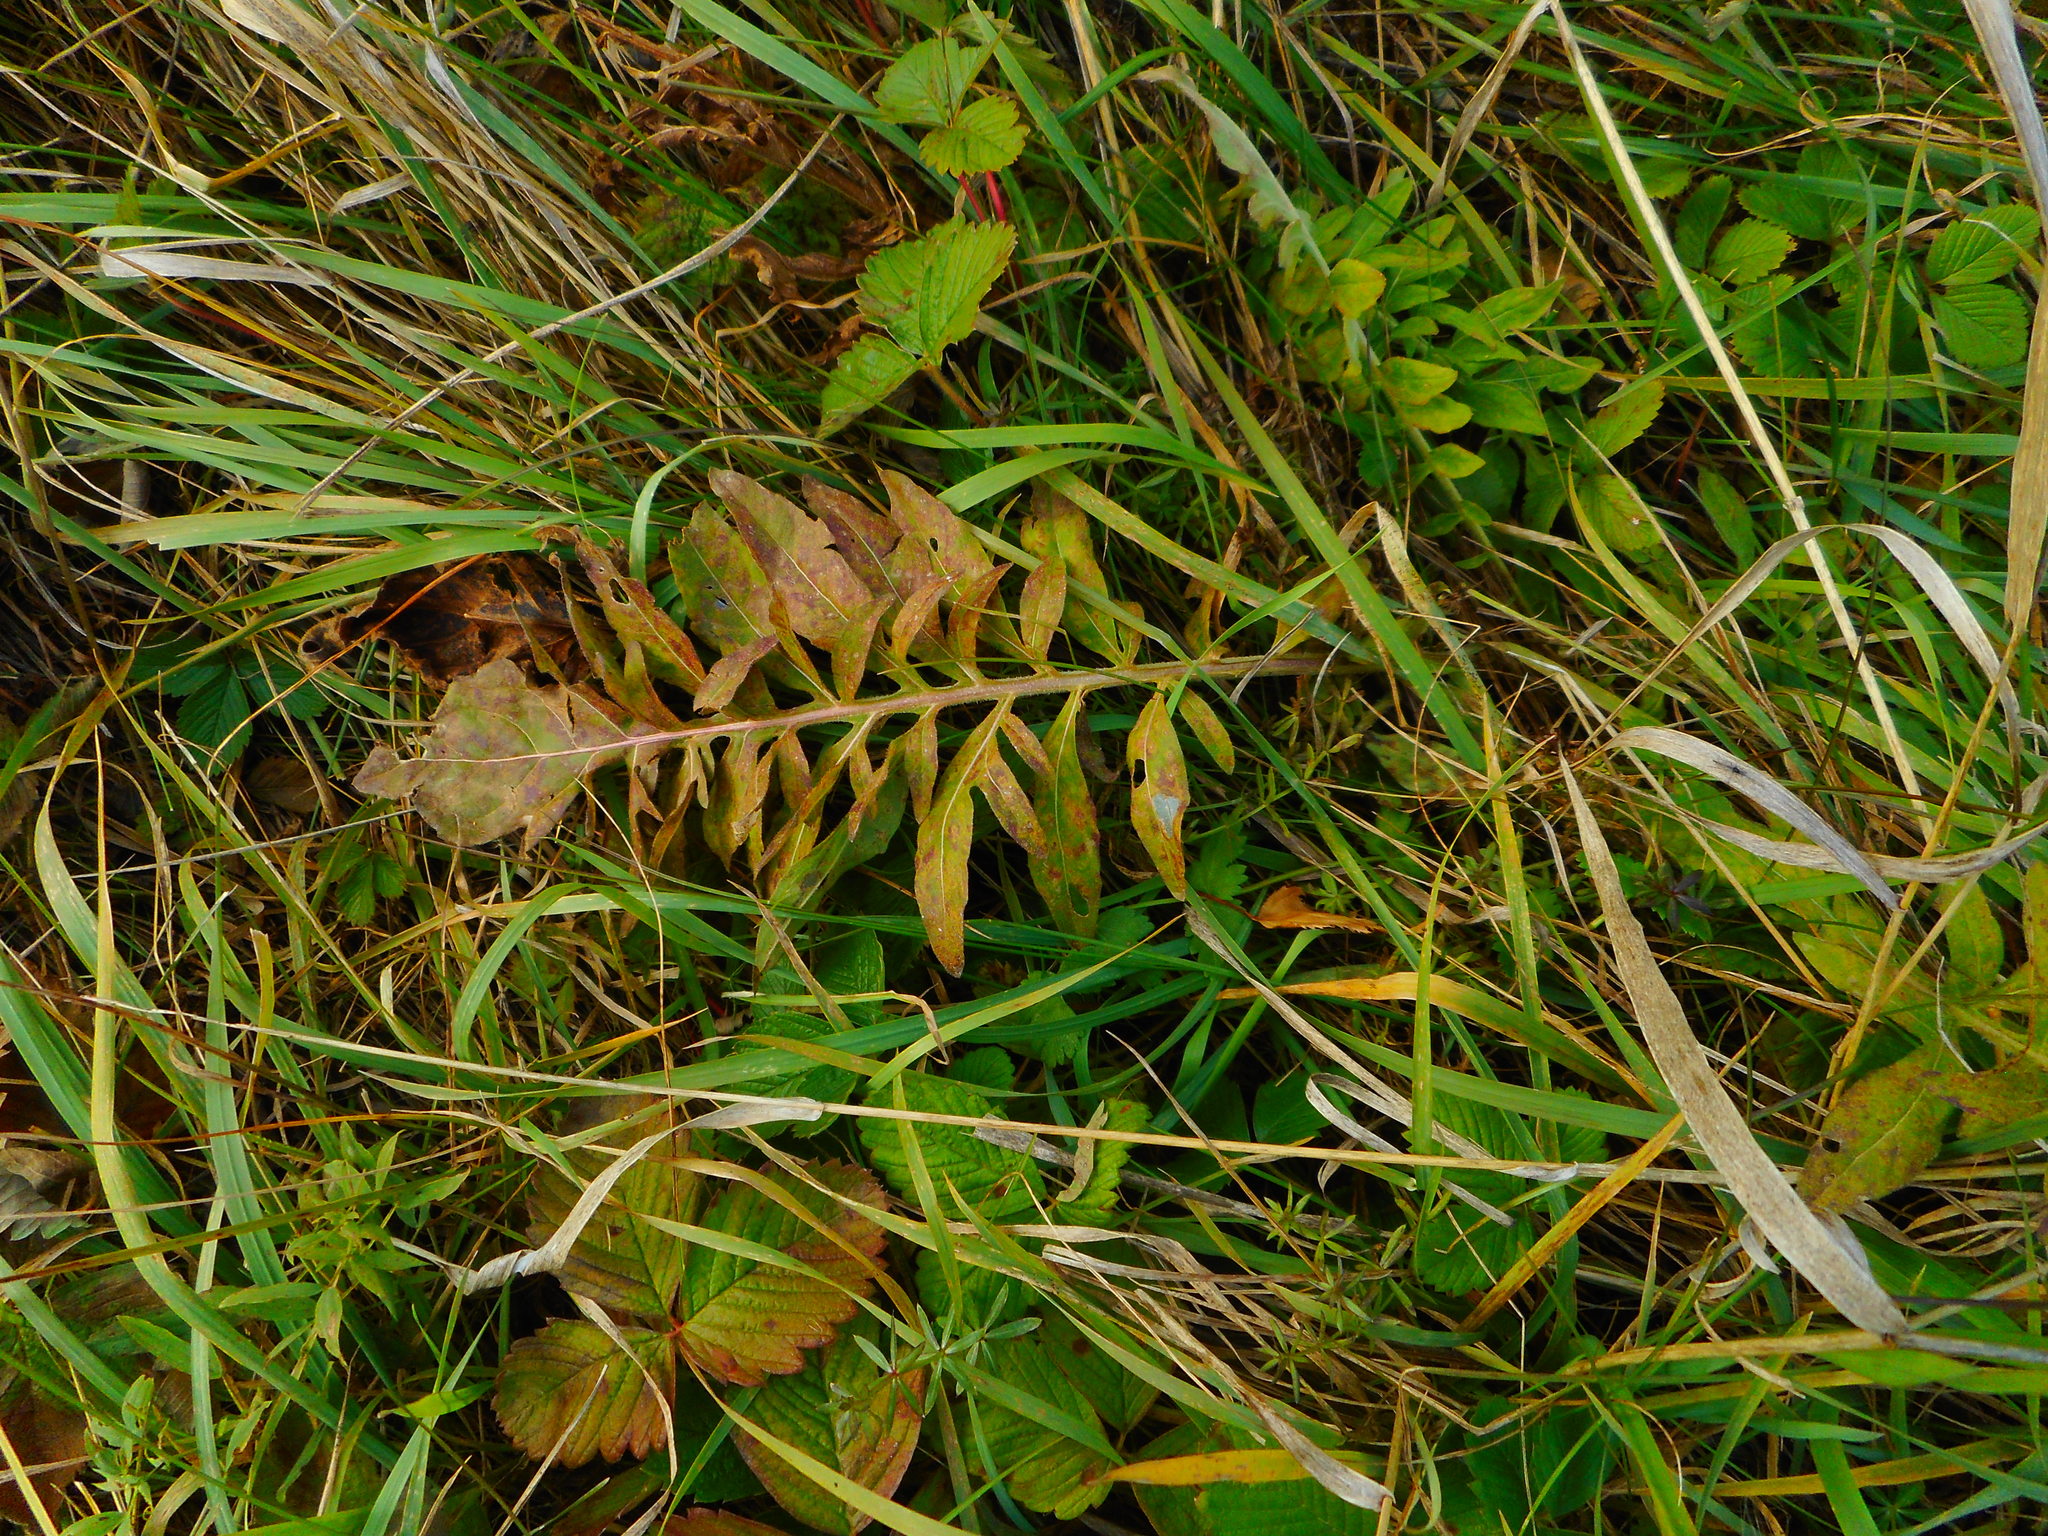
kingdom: Plantae
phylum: Tracheophyta
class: Magnoliopsida
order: Asterales
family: Asteraceae
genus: Centaurea
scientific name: Centaurea scabiosa
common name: Greater knapweed
